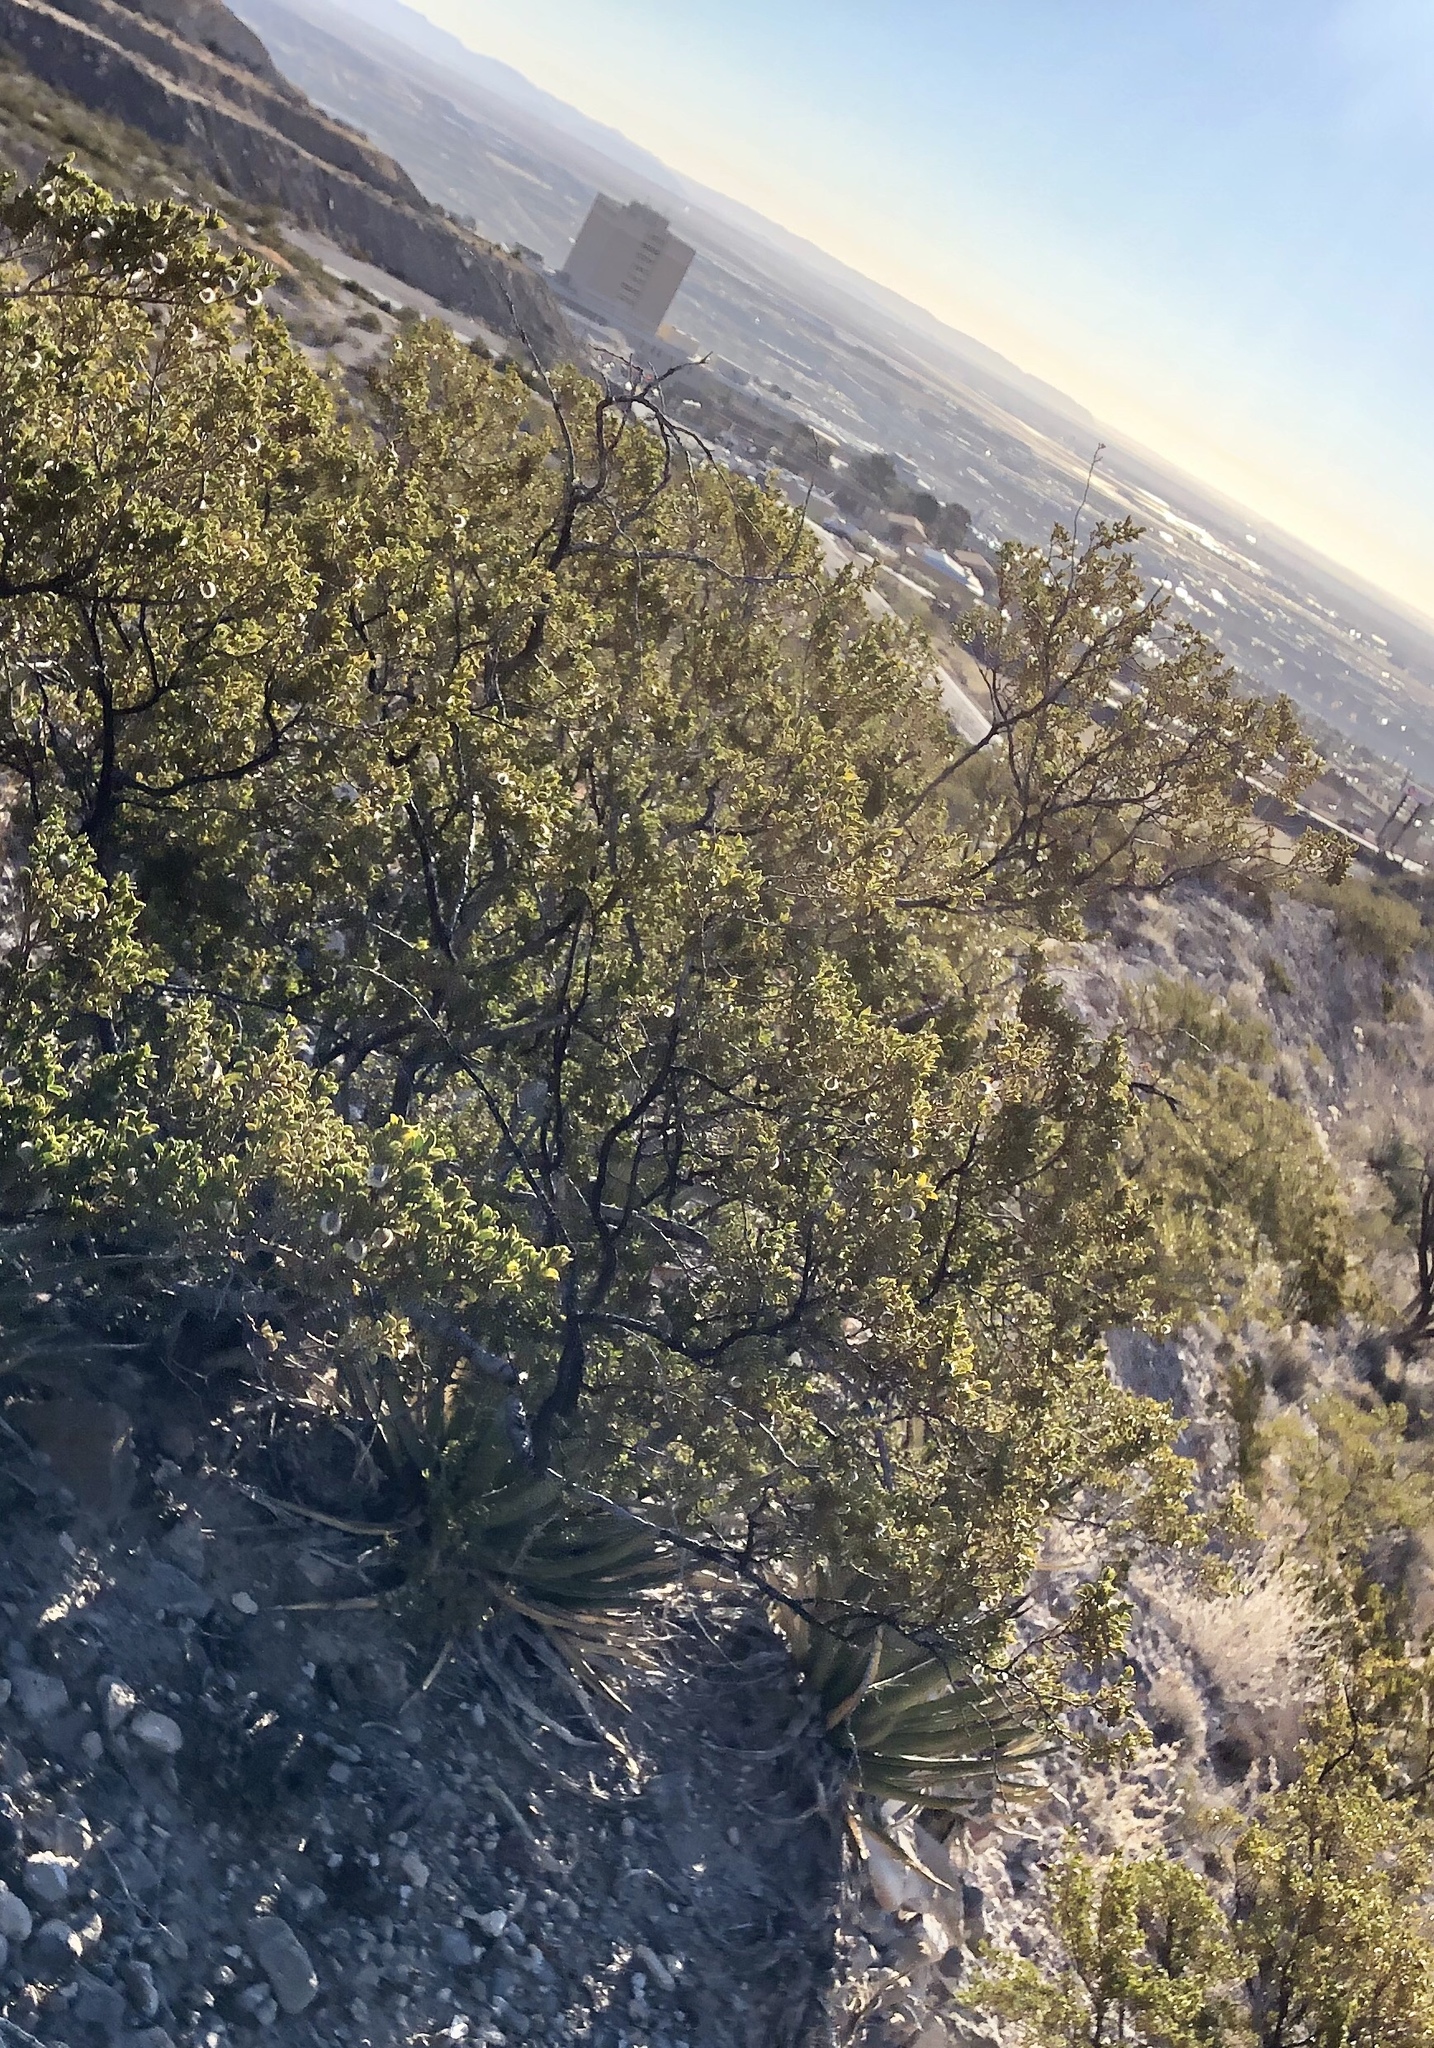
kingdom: Plantae
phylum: Tracheophyta
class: Magnoliopsida
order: Zygophyllales
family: Zygophyllaceae
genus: Larrea
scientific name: Larrea tridentata
